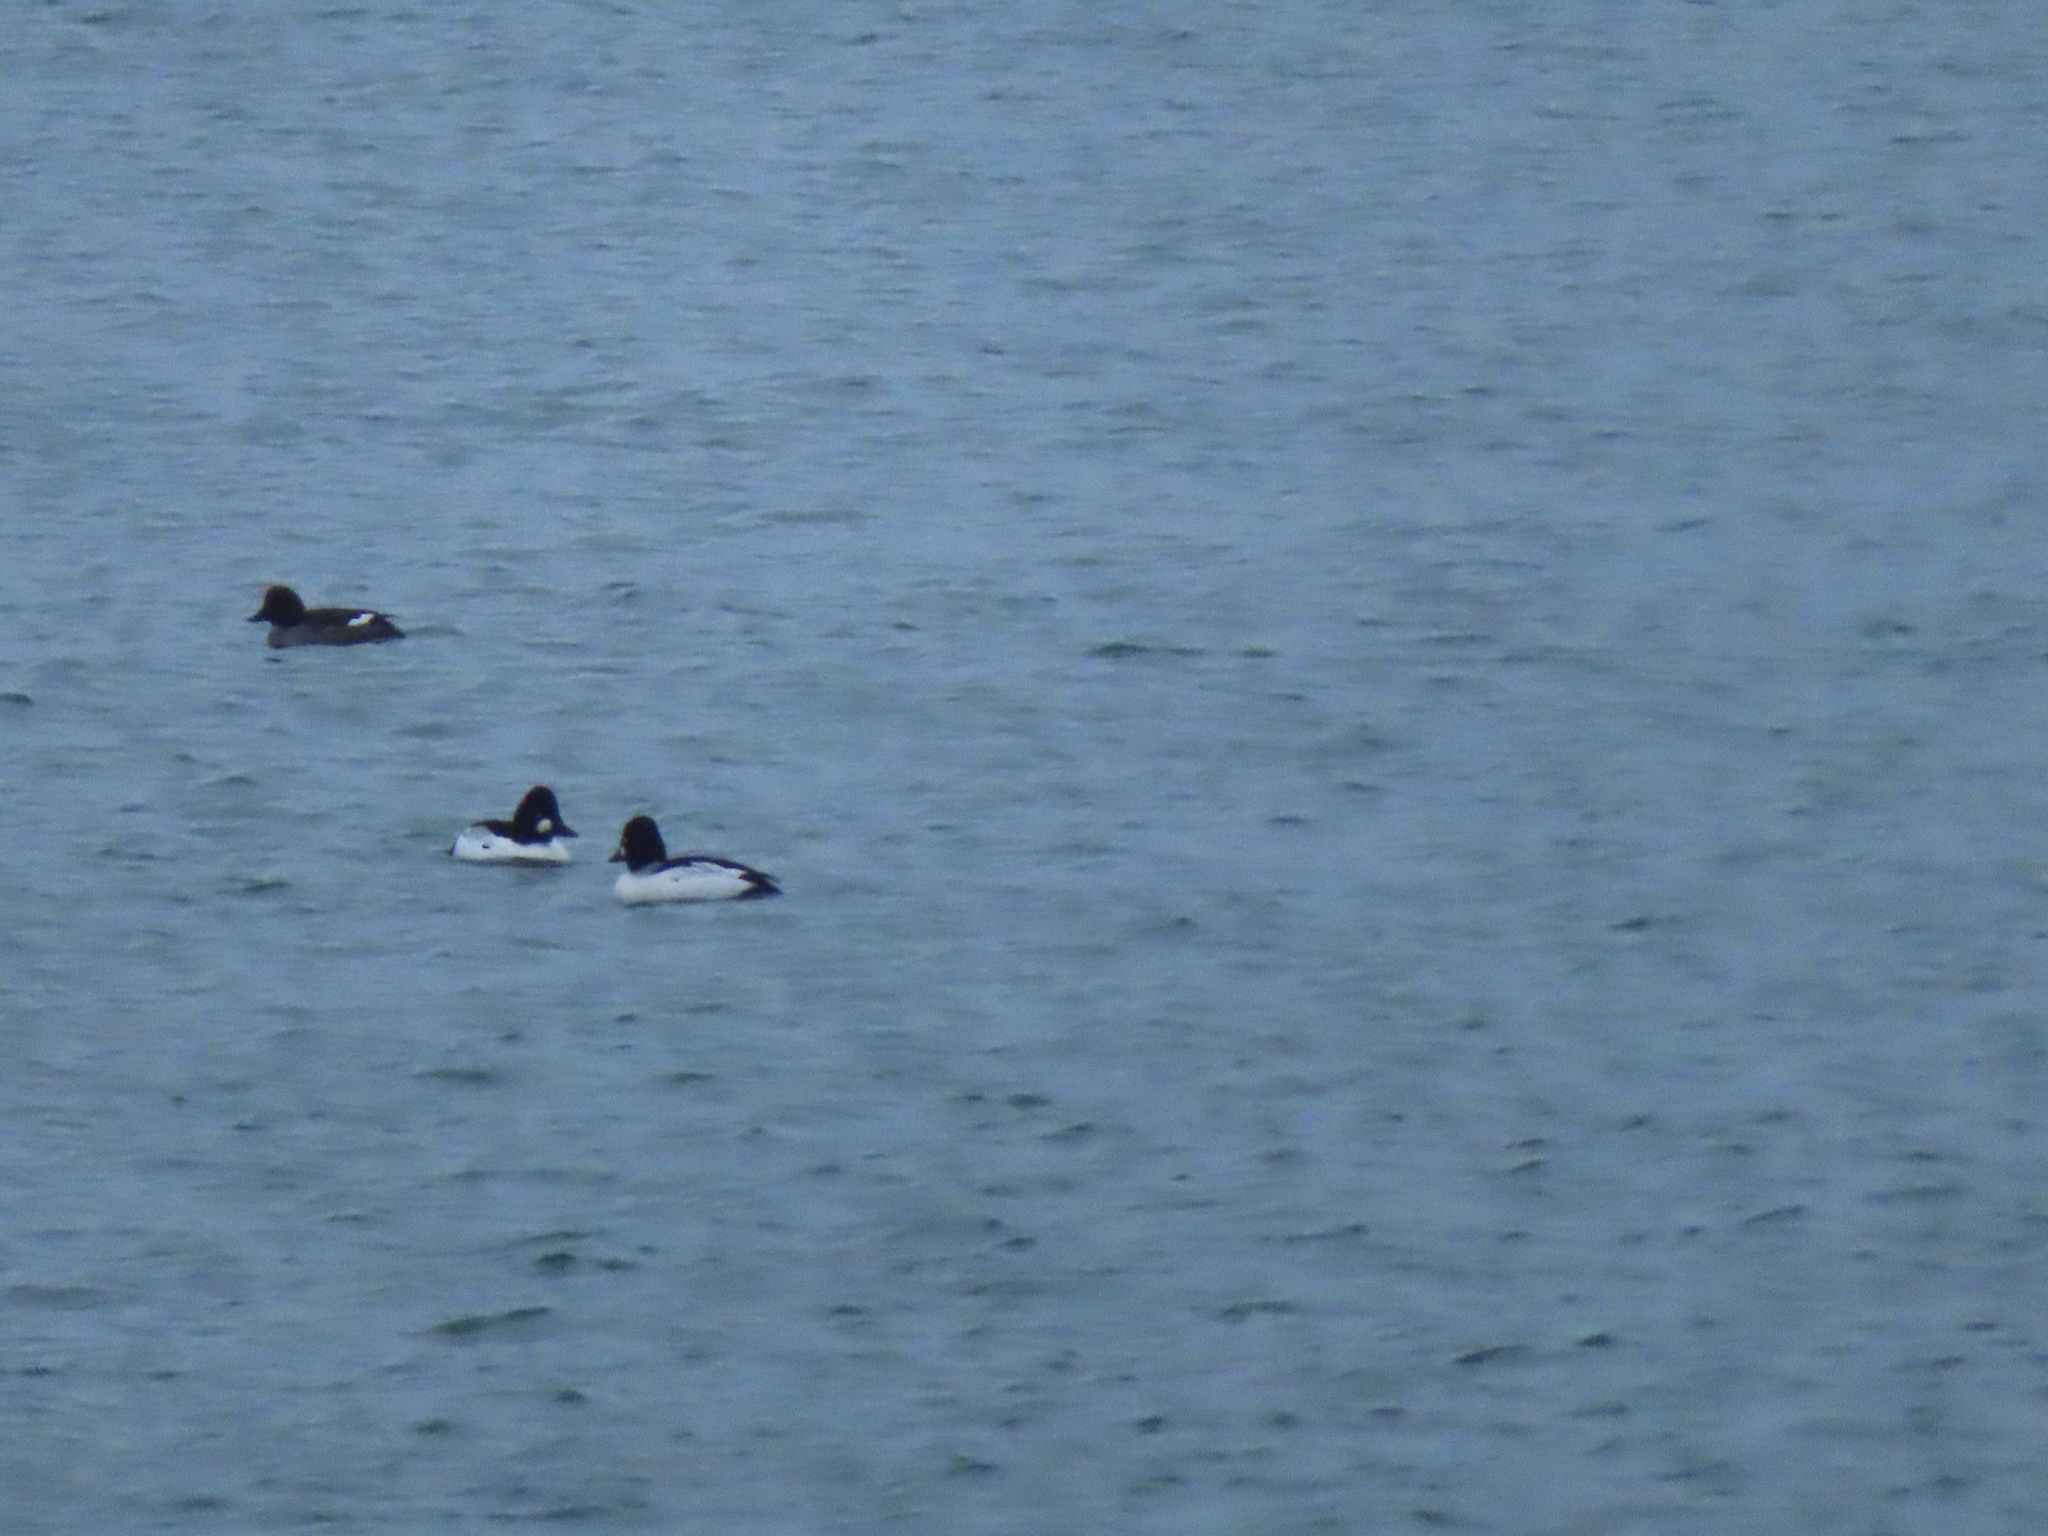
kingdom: Animalia
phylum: Chordata
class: Aves
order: Anseriformes
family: Anatidae
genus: Bucephala
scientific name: Bucephala clangula
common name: Common goldeneye
